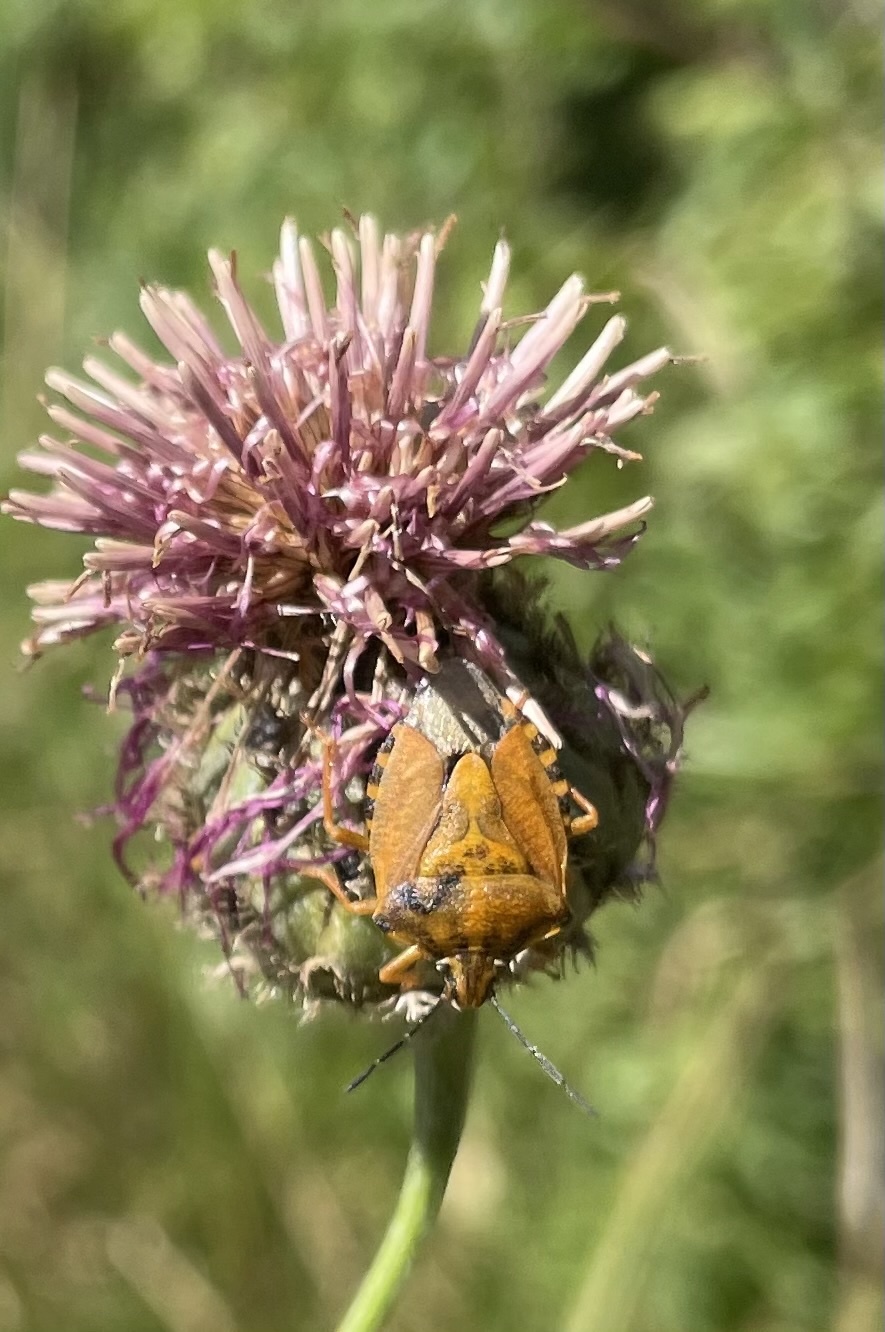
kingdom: Animalia
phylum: Arthropoda
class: Insecta
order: Hemiptera
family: Pentatomidae
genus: Carpocoris
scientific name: Carpocoris purpureipennis
